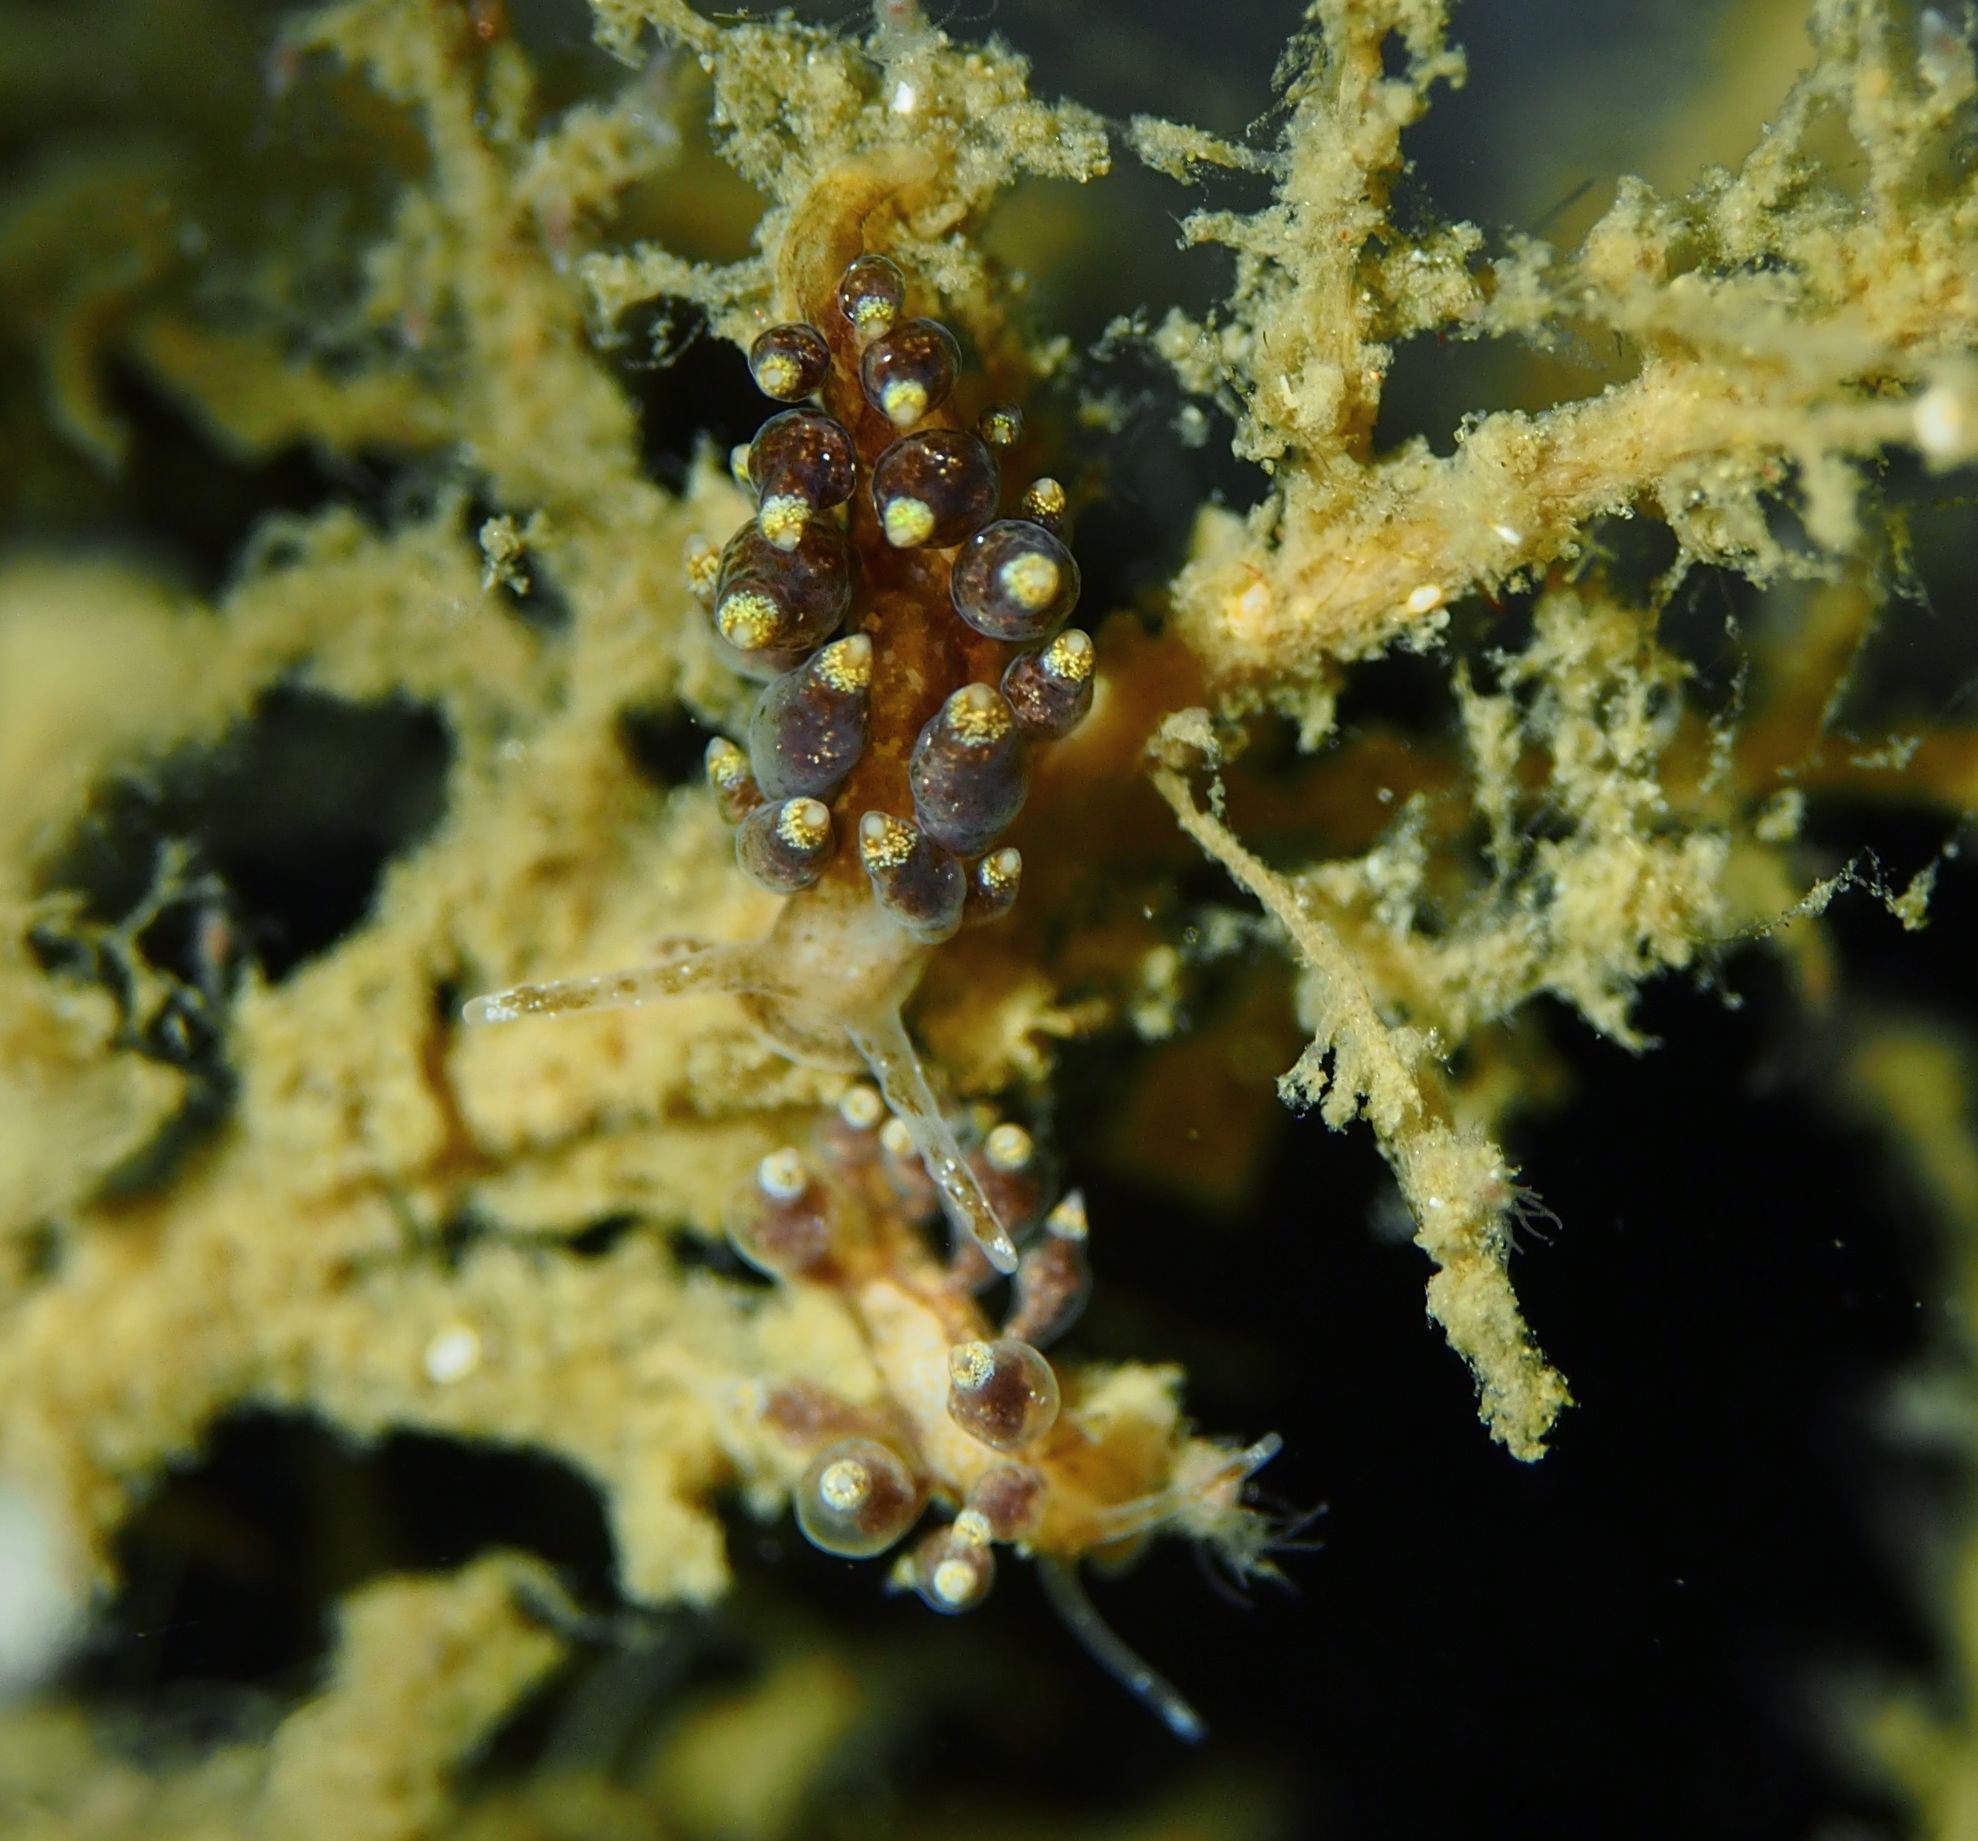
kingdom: Animalia
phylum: Mollusca
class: Gastropoda
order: Nudibranchia
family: Eubranchidae
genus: Eubranchus
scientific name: Eubranchus exiguus
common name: Balloon aeolis
